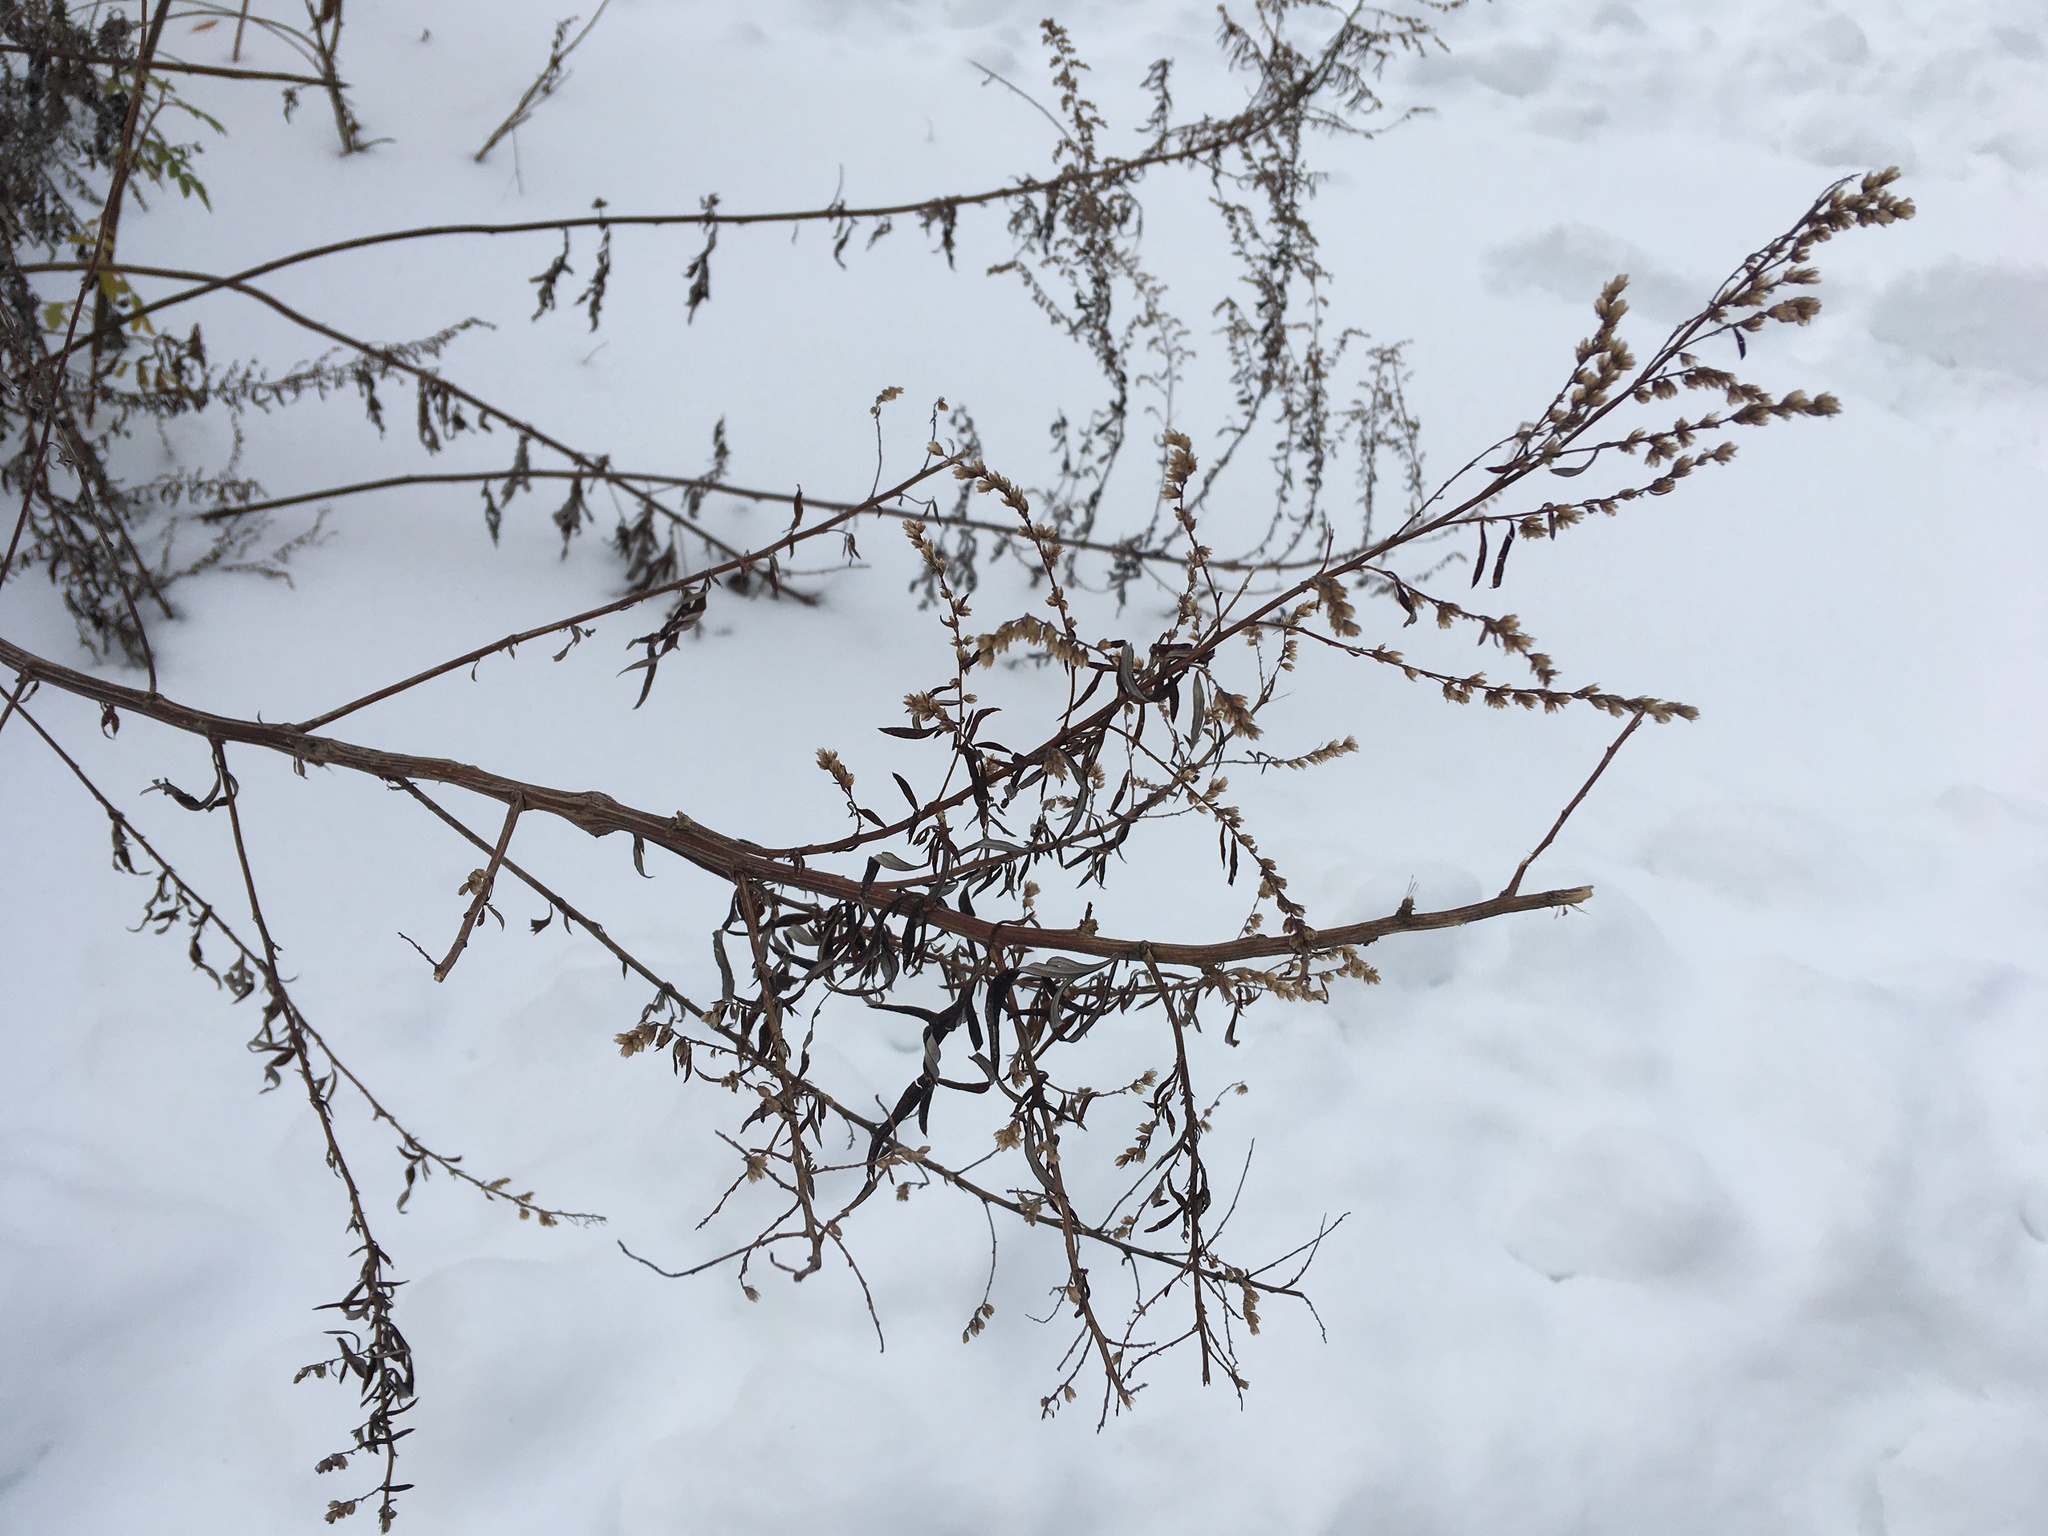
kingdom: Plantae
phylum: Tracheophyta
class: Magnoliopsida
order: Asterales
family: Asteraceae
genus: Artemisia
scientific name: Artemisia vulgaris
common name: Mugwort
